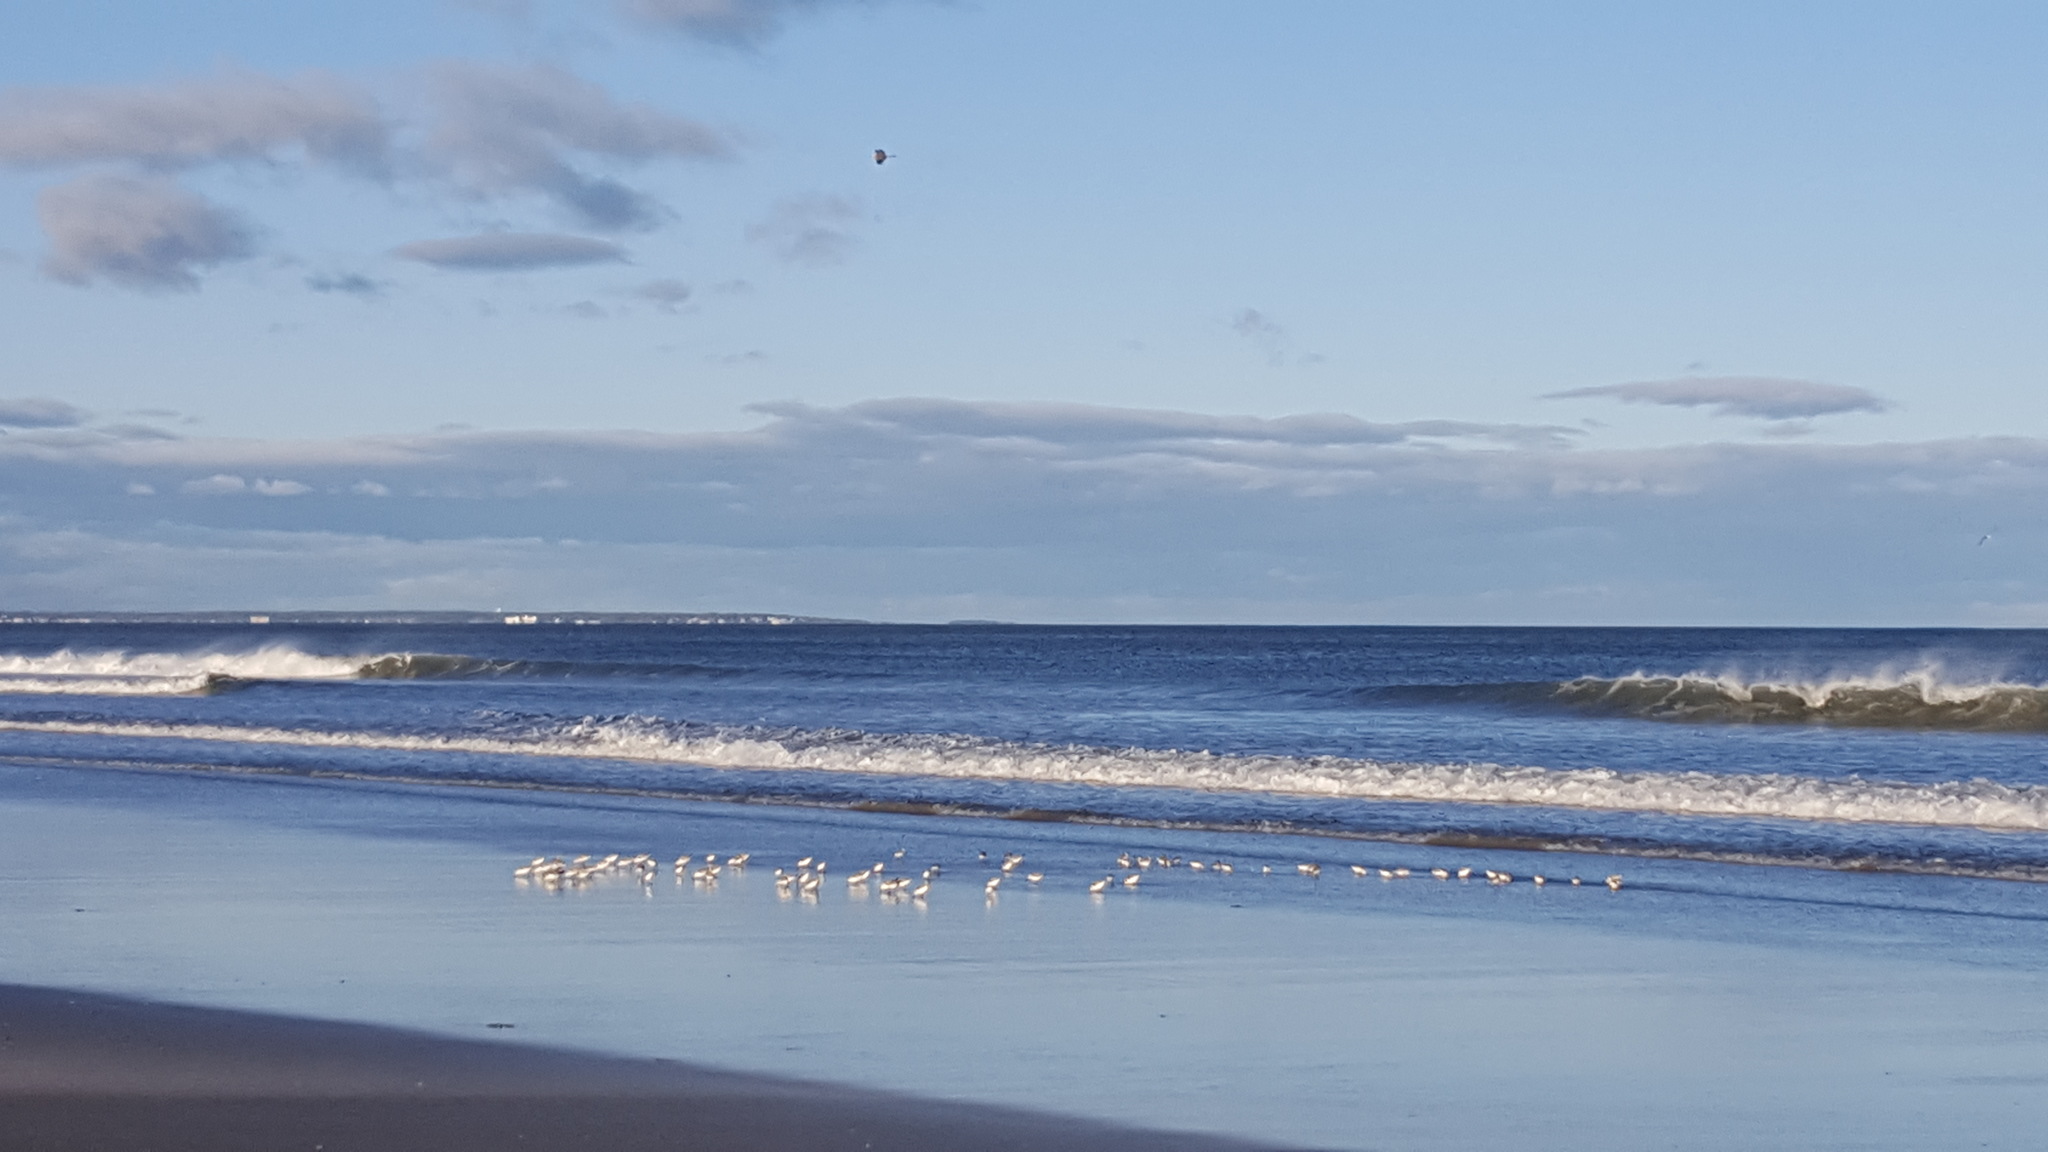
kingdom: Animalia
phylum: Chordata
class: Aves
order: Charadriiformes
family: Scolopacidae
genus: Calidris
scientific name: Calidris alba
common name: Sanderling
